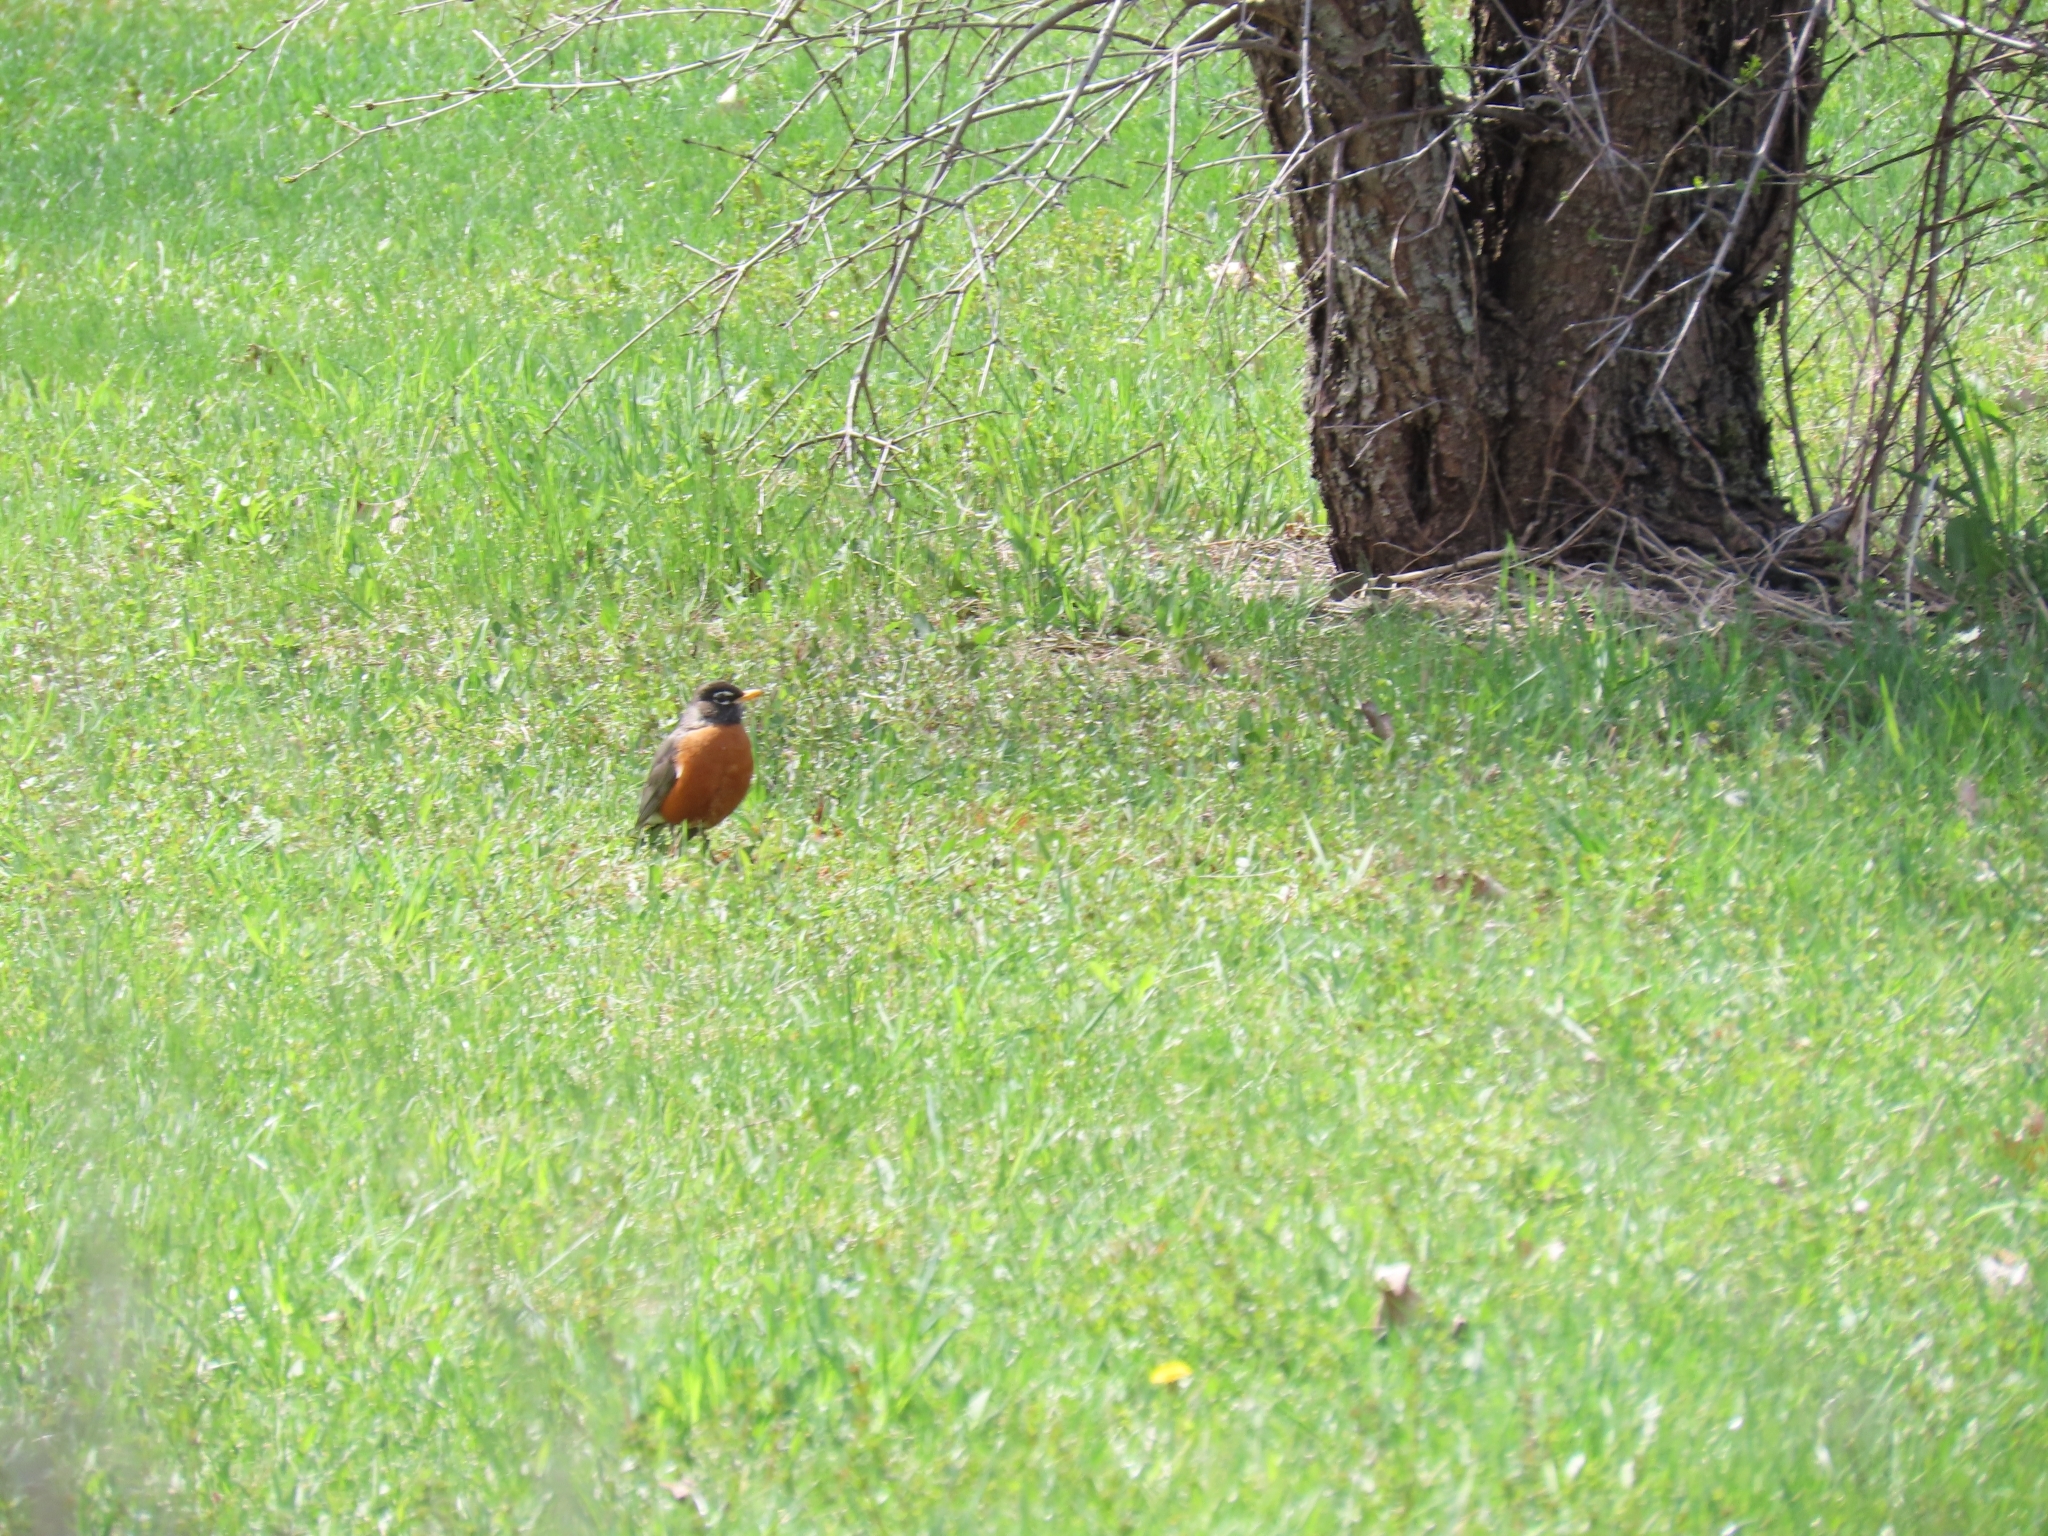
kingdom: Animalia
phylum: Chordata
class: Aves
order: Passeriformes
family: Turdidae
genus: Turdus
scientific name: Turdus migratorius
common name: American robin
